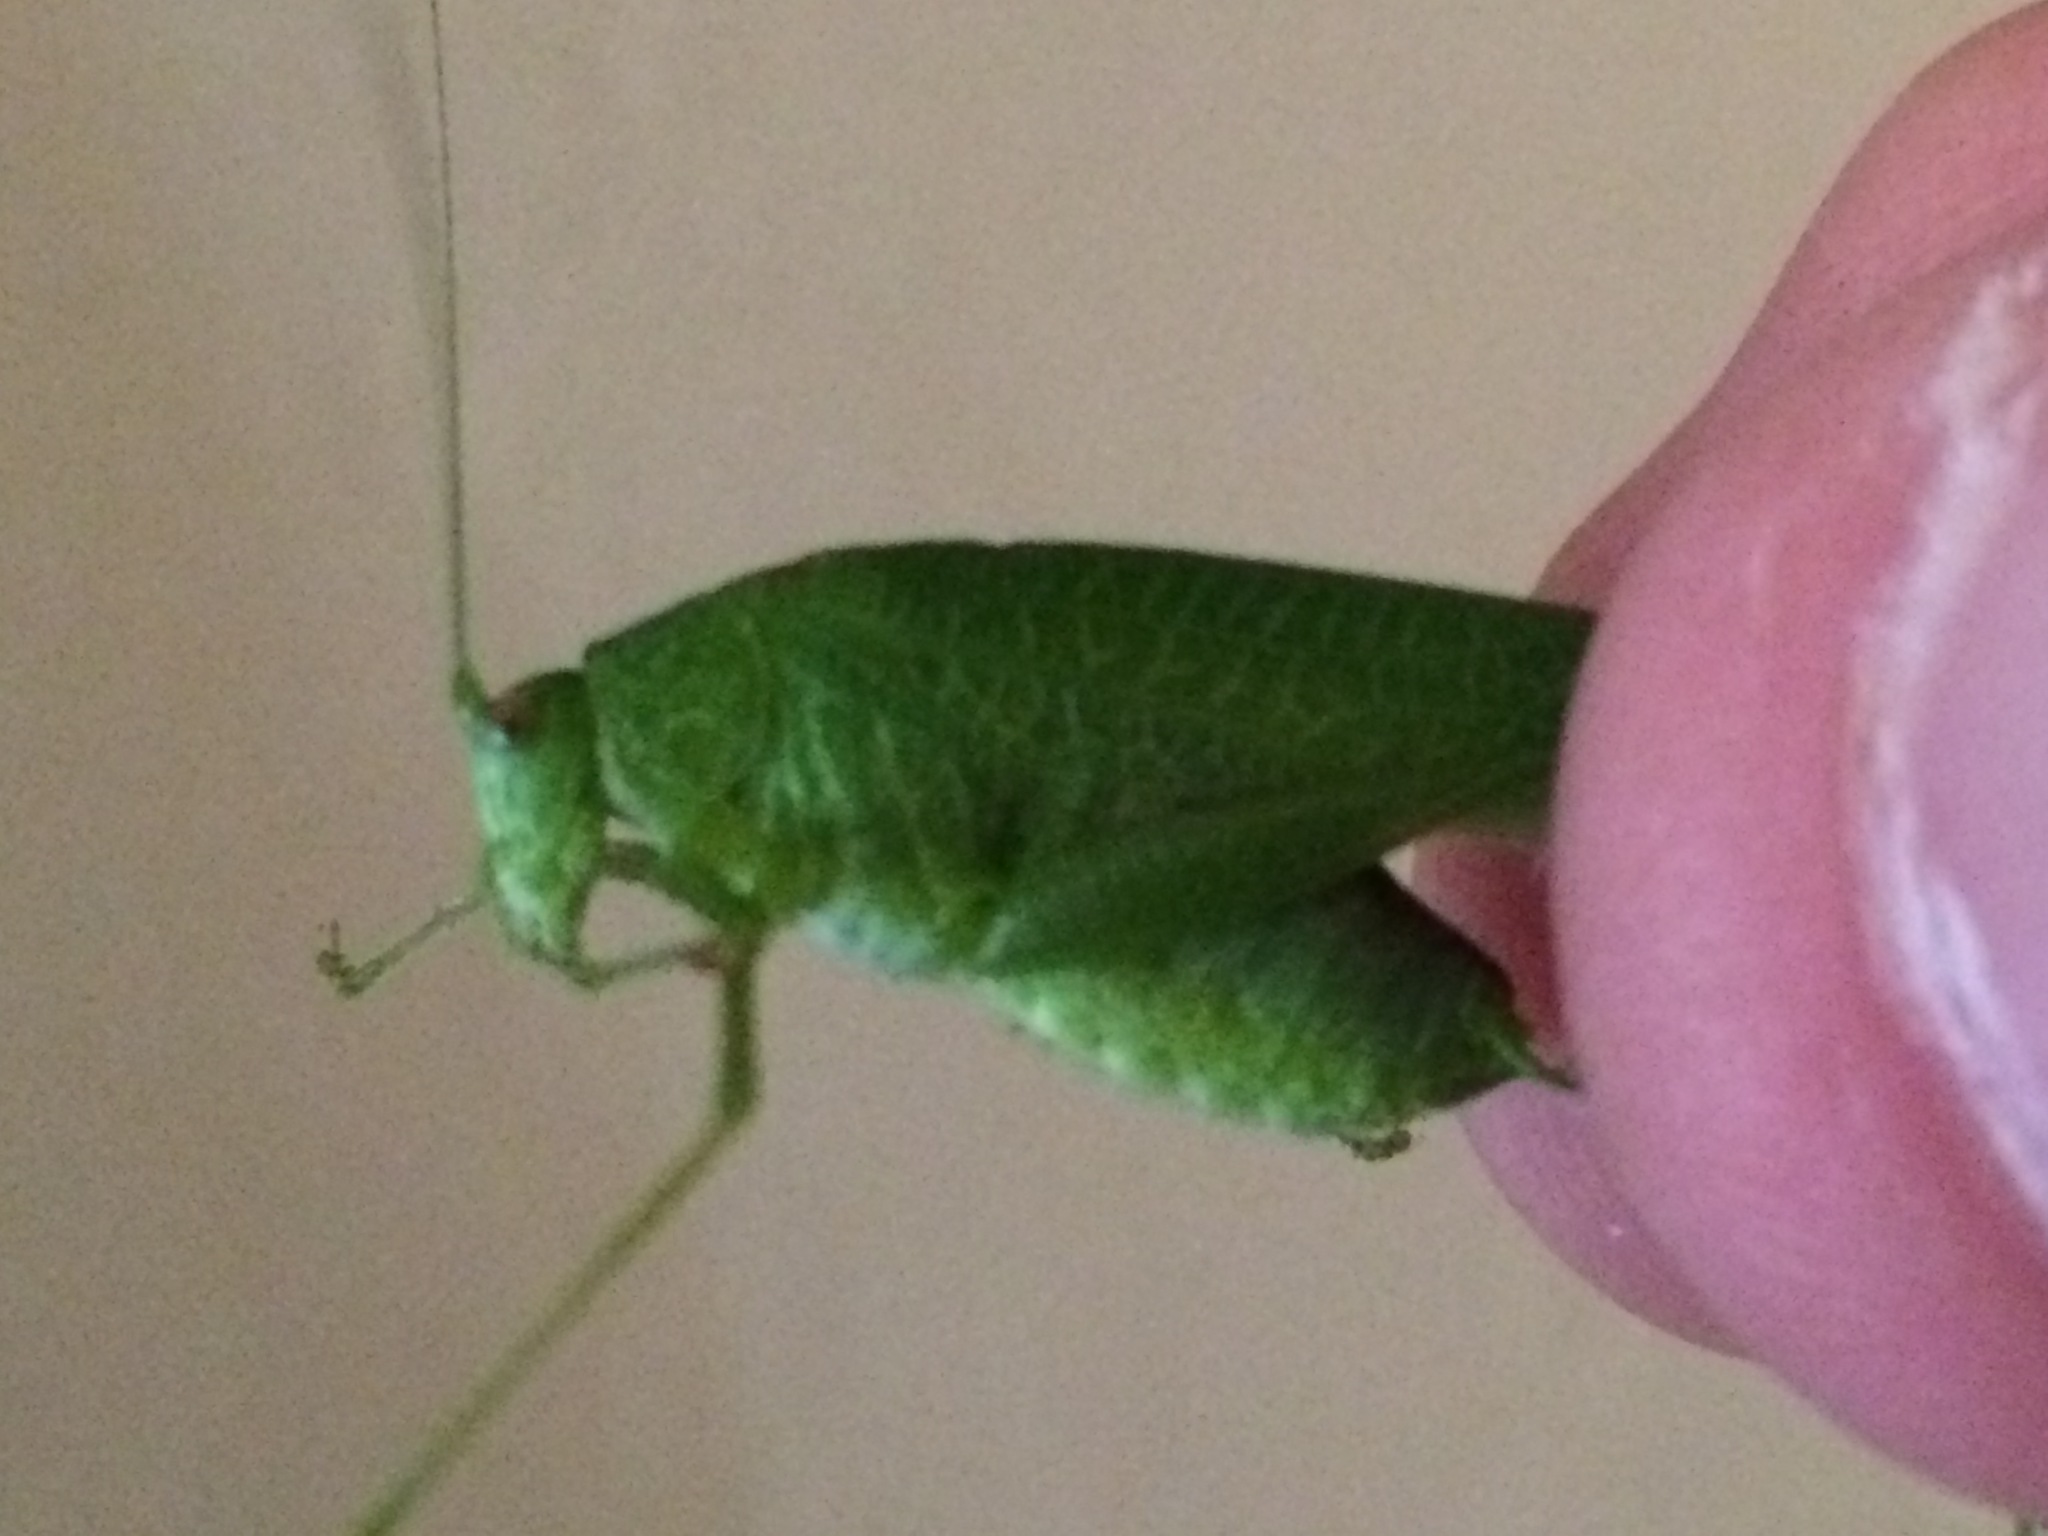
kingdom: Animalia
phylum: Arthropoda
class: Insecta
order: Orthoptera
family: Tettigoniidae
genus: Phaneroptera
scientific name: Phaneroptera nana
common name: Southern sickle bush-cricket
